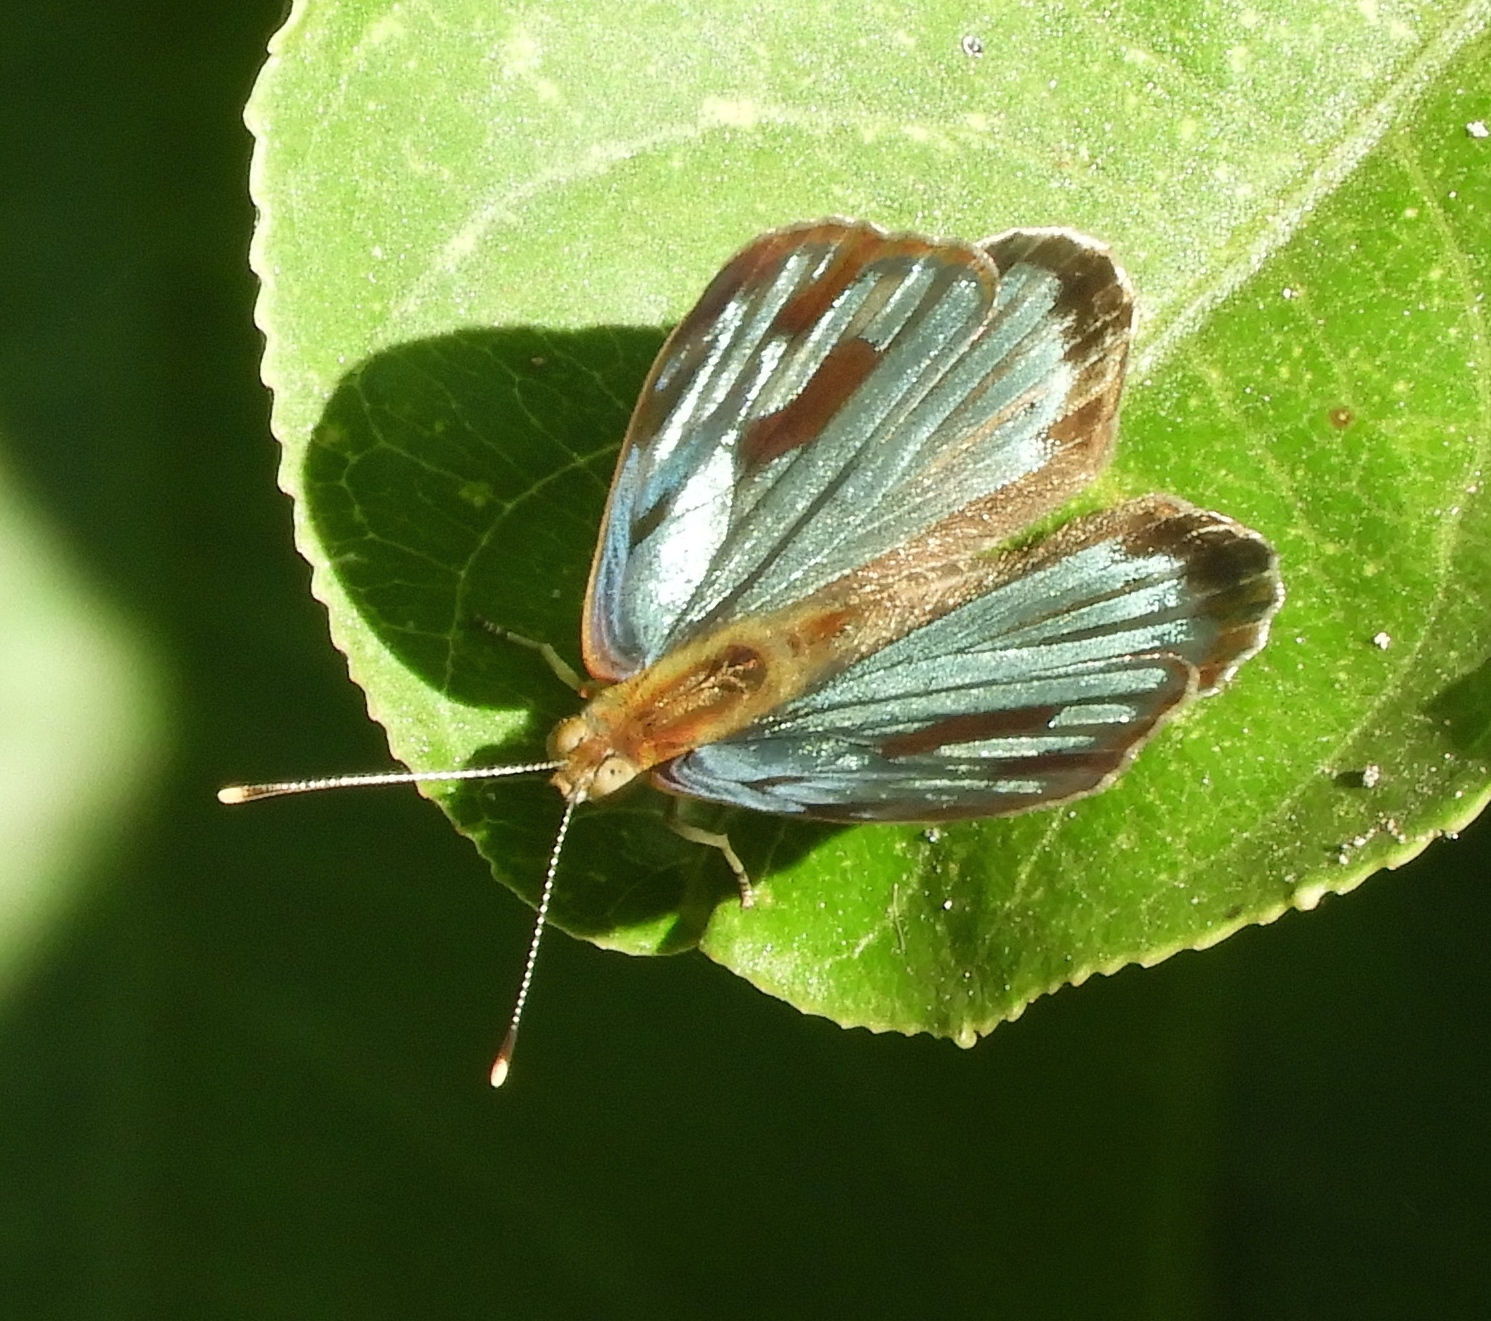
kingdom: Animalia
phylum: Arthropoda
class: Insecta
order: Lepidoptera
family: Nymphalidae
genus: Dynamine
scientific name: Dynamine mylitta
